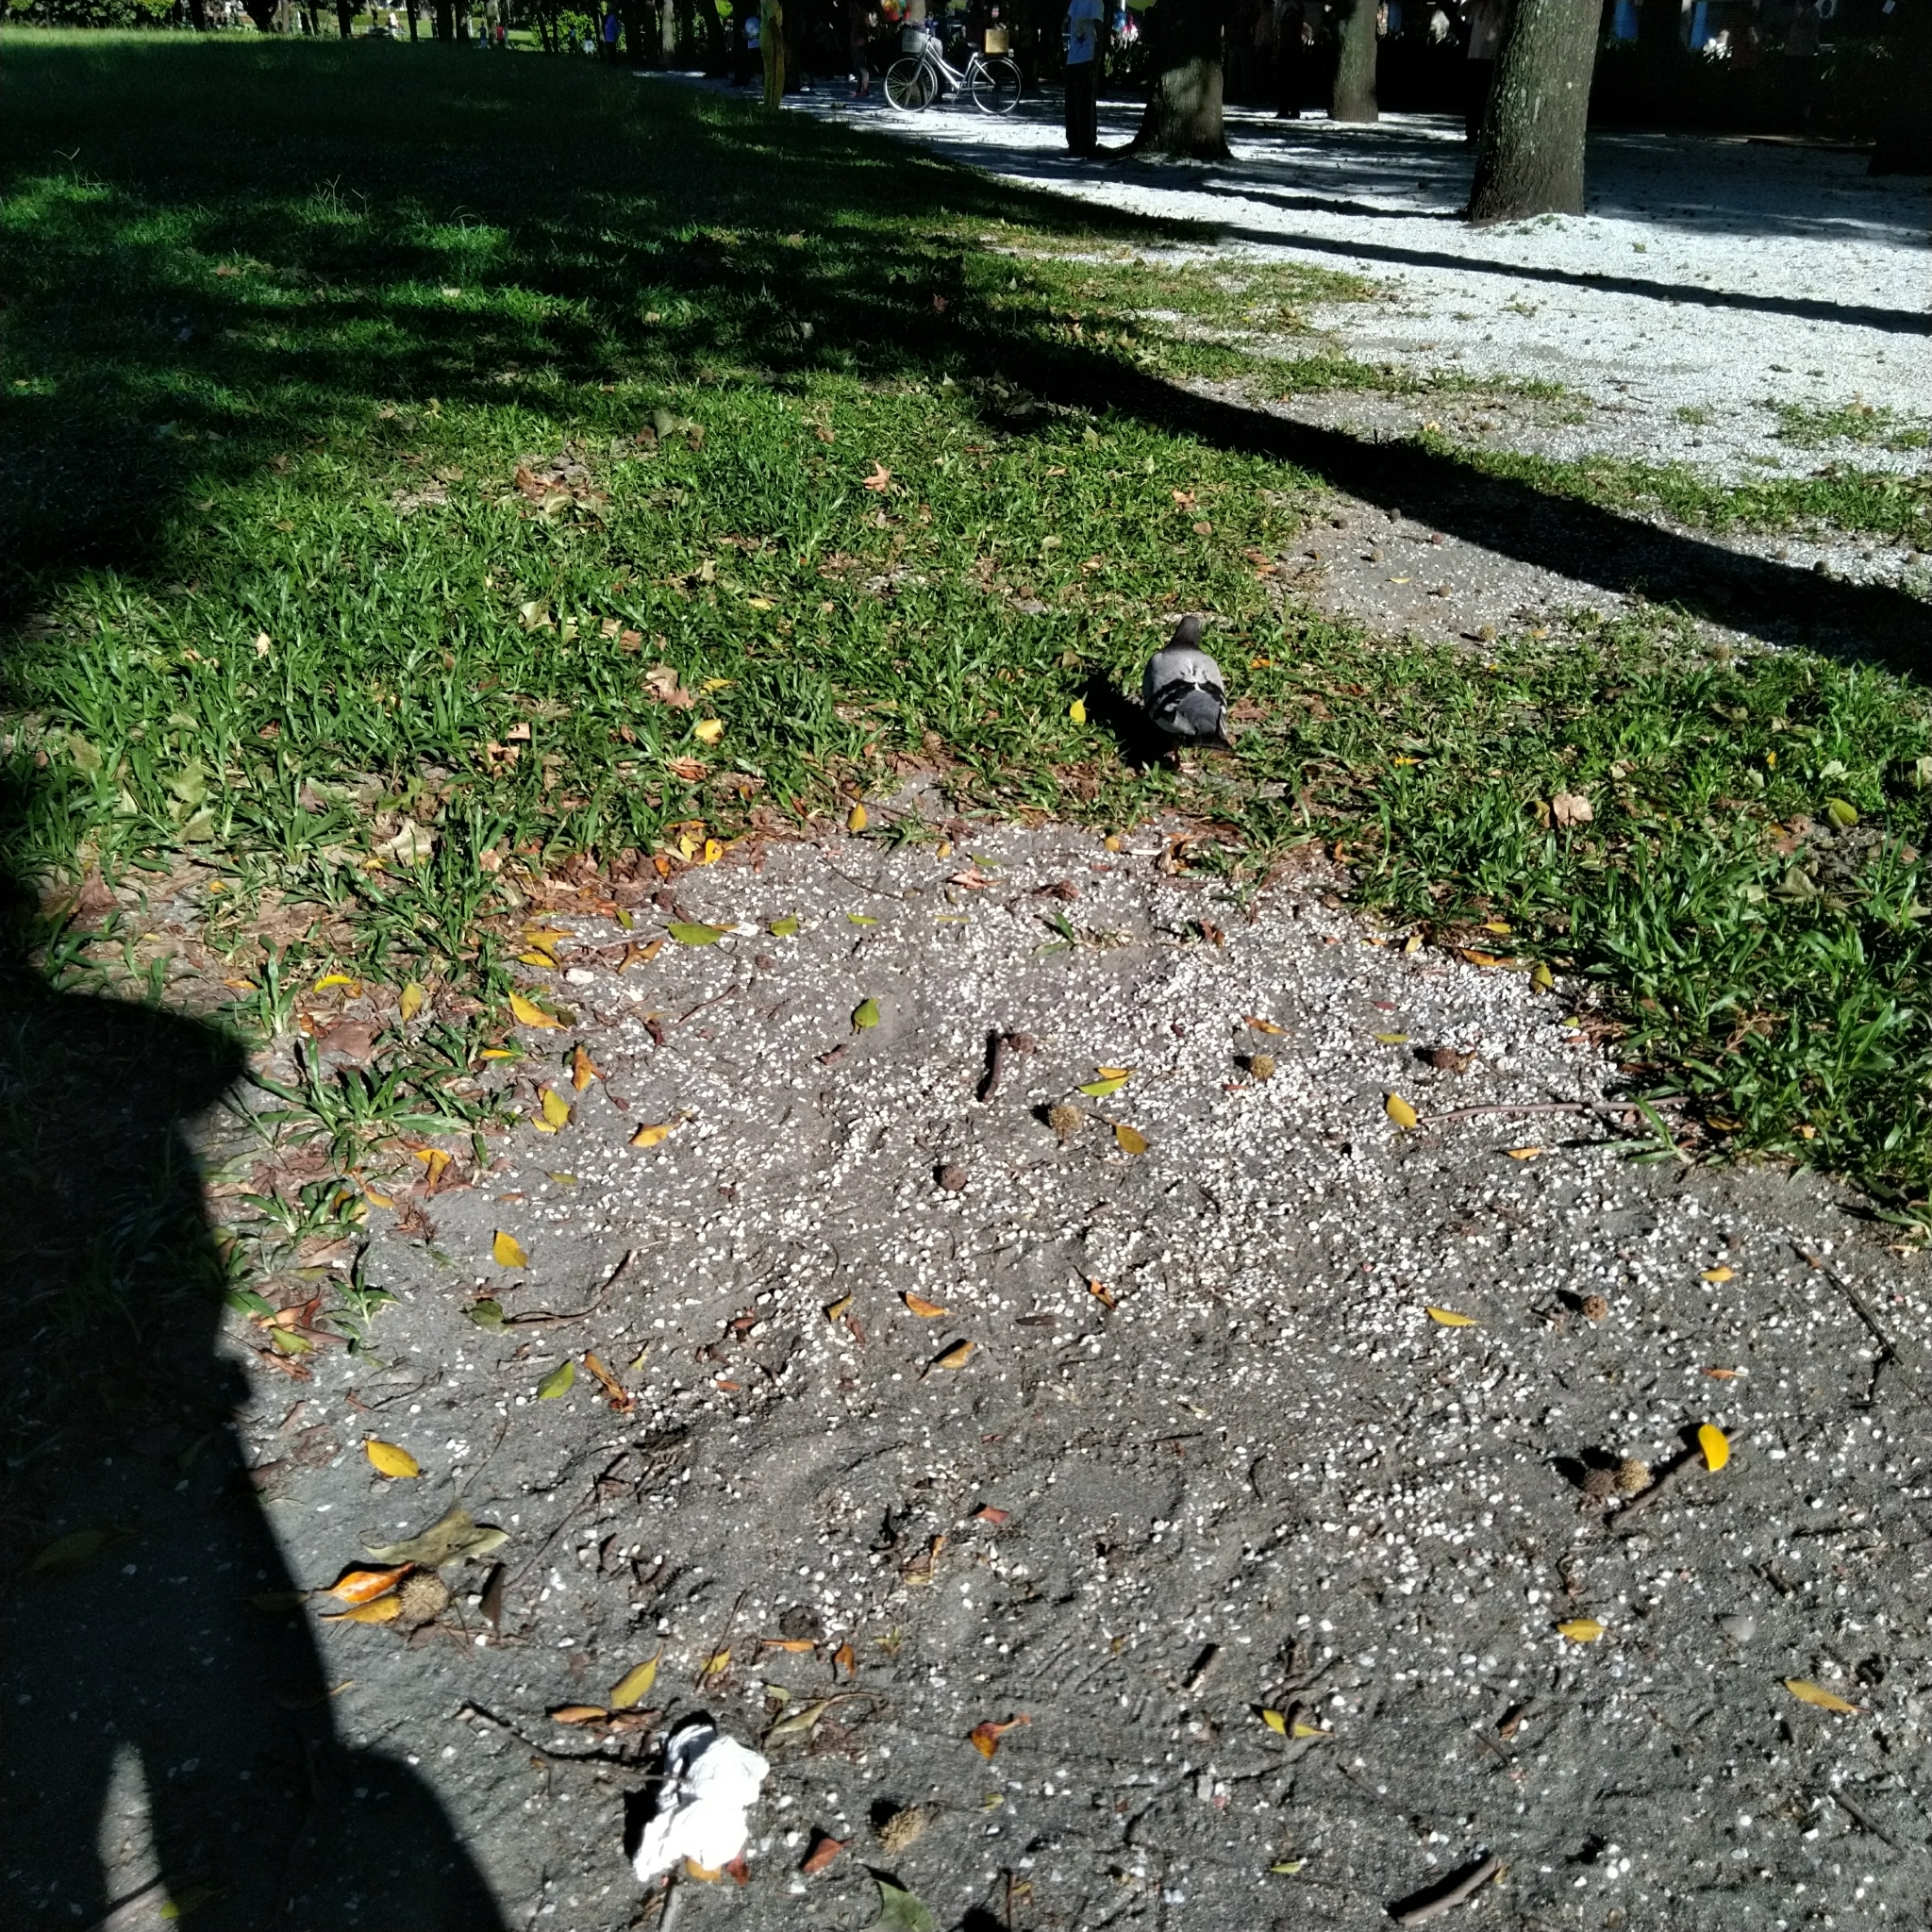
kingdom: Animalia
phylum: Chordata
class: Aves
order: Columbiformes
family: Columbidae
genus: Columba
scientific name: Columba livia
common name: Rock pigeon
